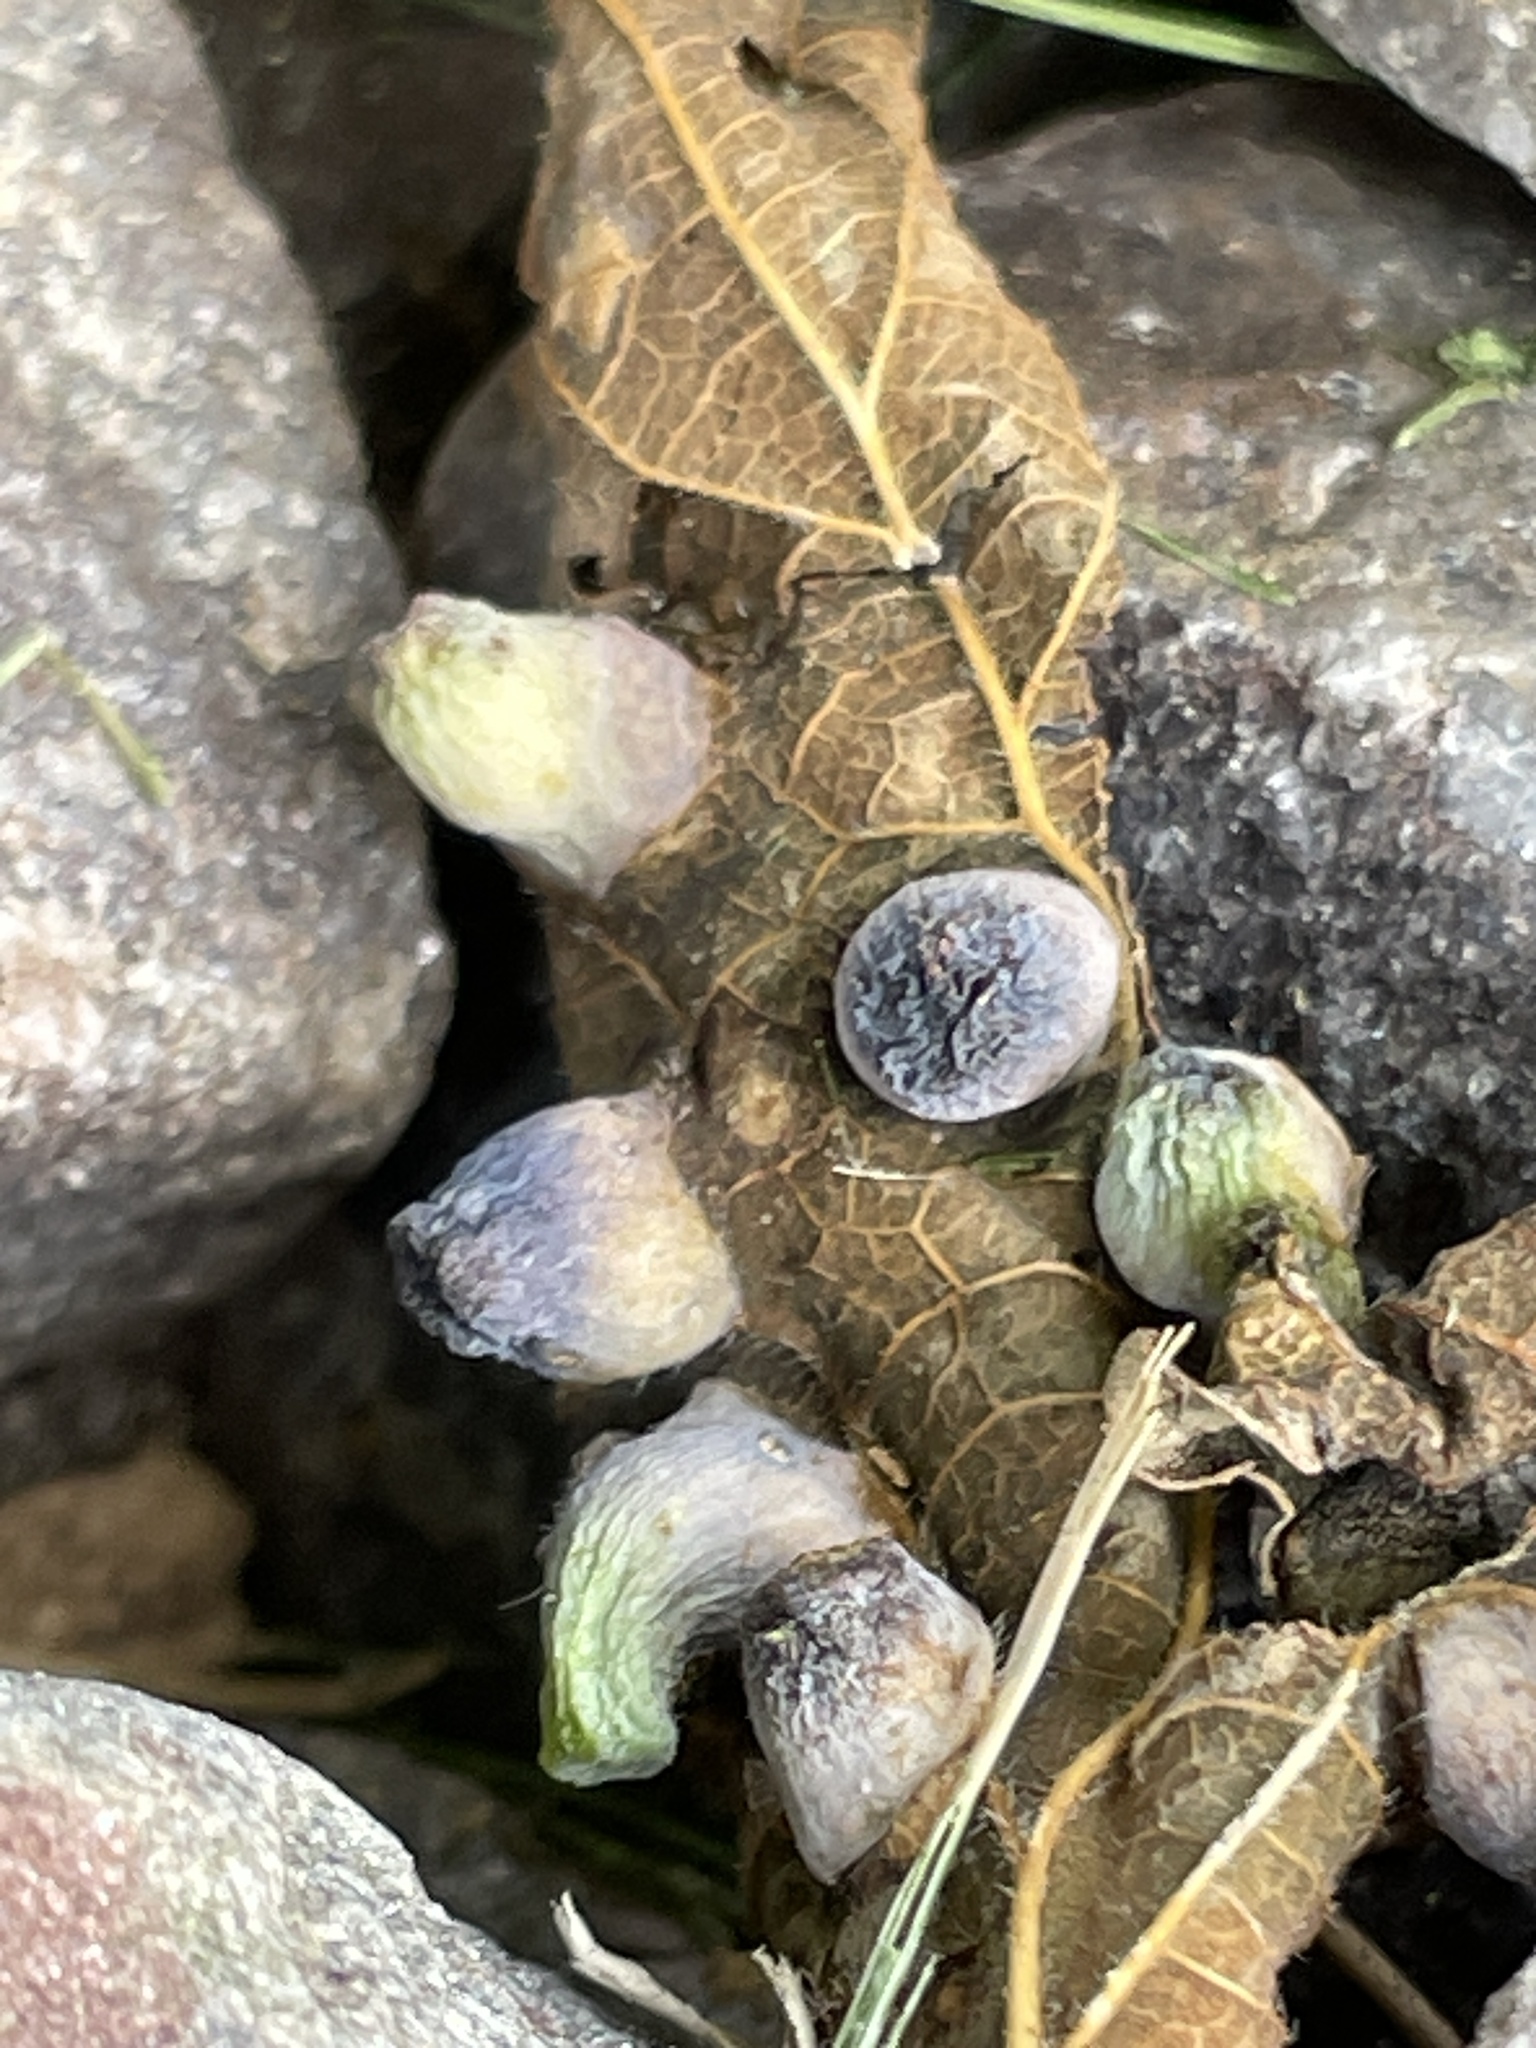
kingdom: Animalia
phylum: Arthropoda
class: Insecta
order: Hemiptera
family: Aphalaridae
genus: Pachypsylla
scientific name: Pachypsylla celtidismamma
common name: Hackberry nipplegall psyllid
